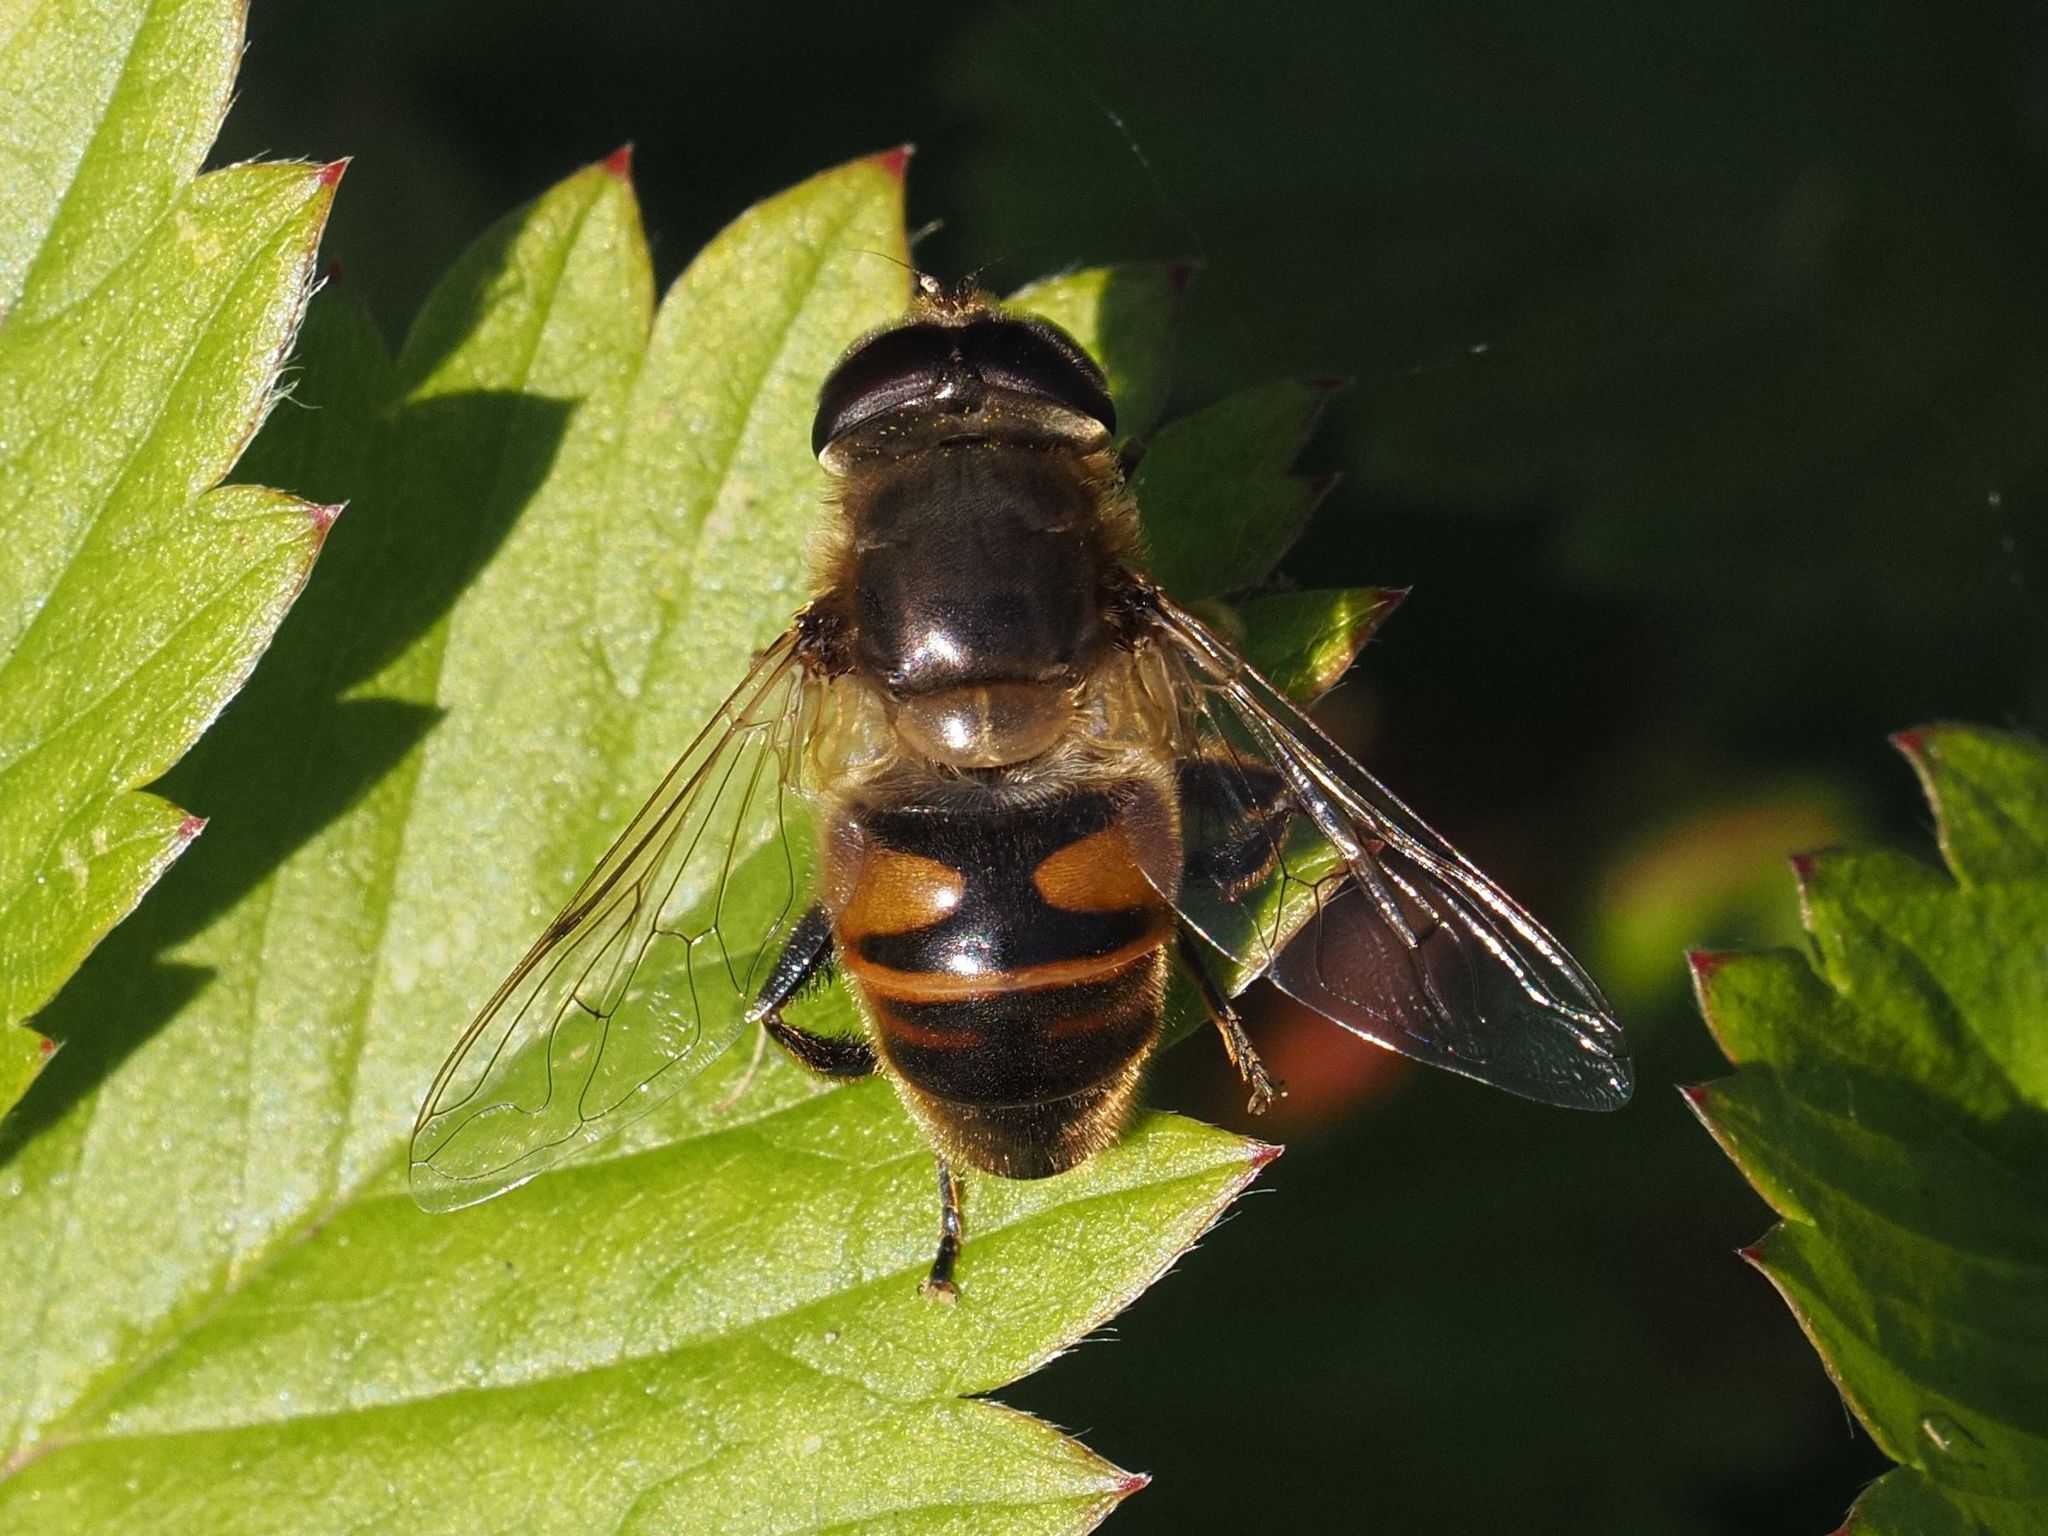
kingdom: Animalia
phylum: Arthropoda
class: Insecta
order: Diptera
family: Syrphidae
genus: Eristalis
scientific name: Eristalis tenax
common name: Drone fly
